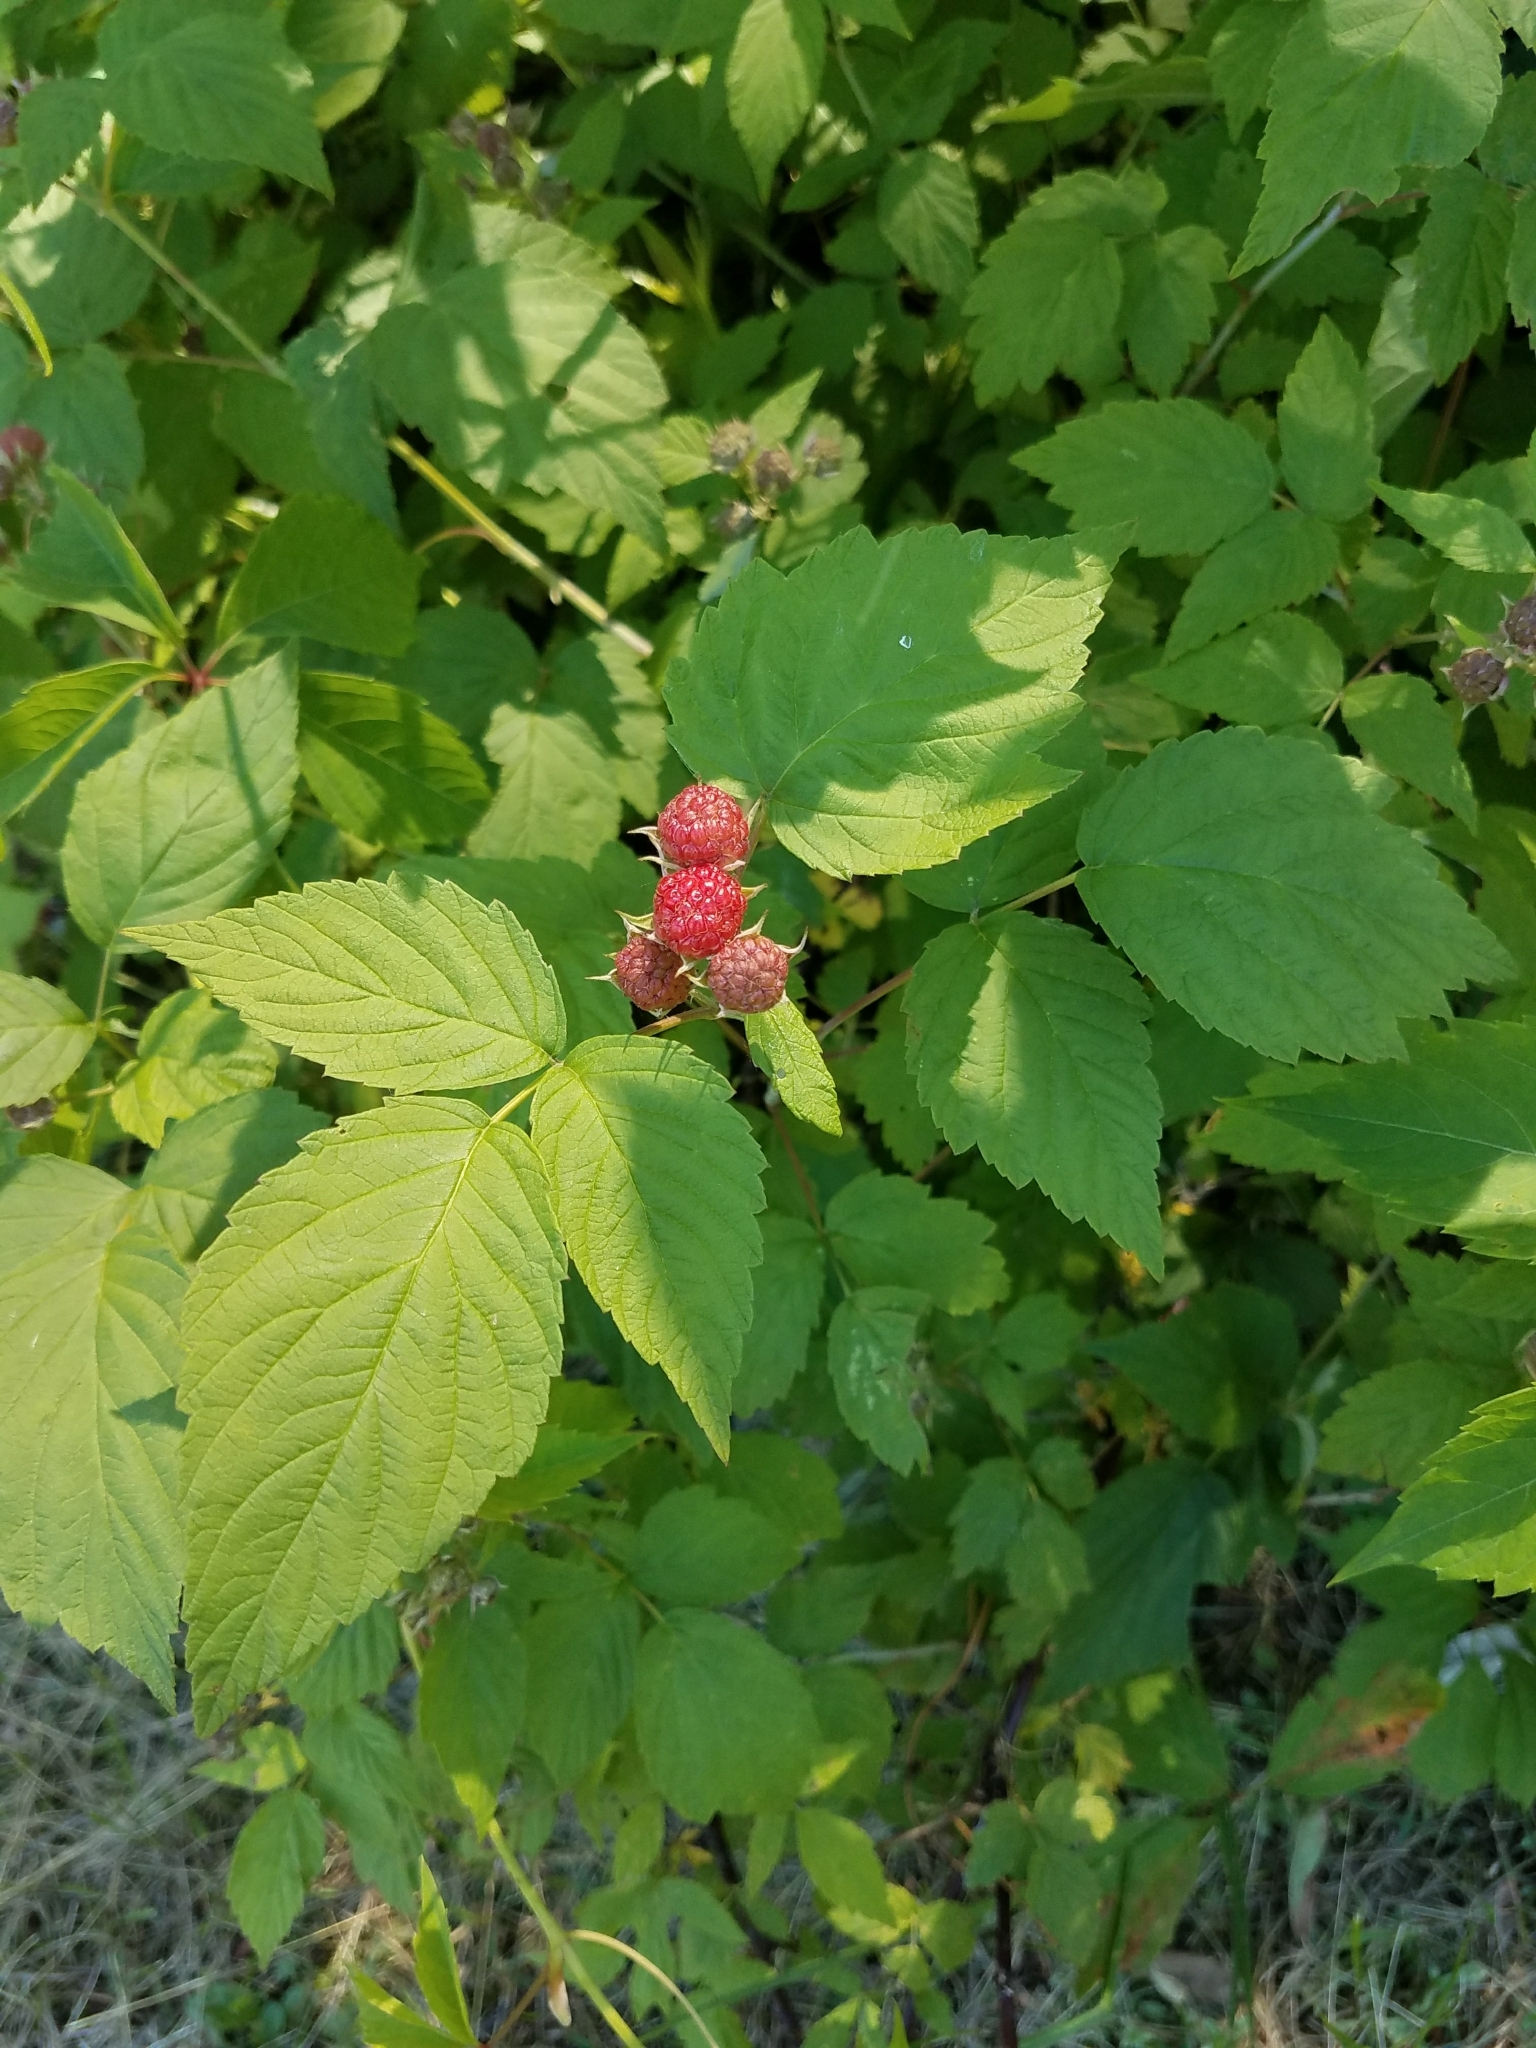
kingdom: Plantae
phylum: Tracheophyta
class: Magnoliopsida
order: Rosales
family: Rosaceae
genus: Rubus
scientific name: Rubus occidentalis
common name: Black raspberry
